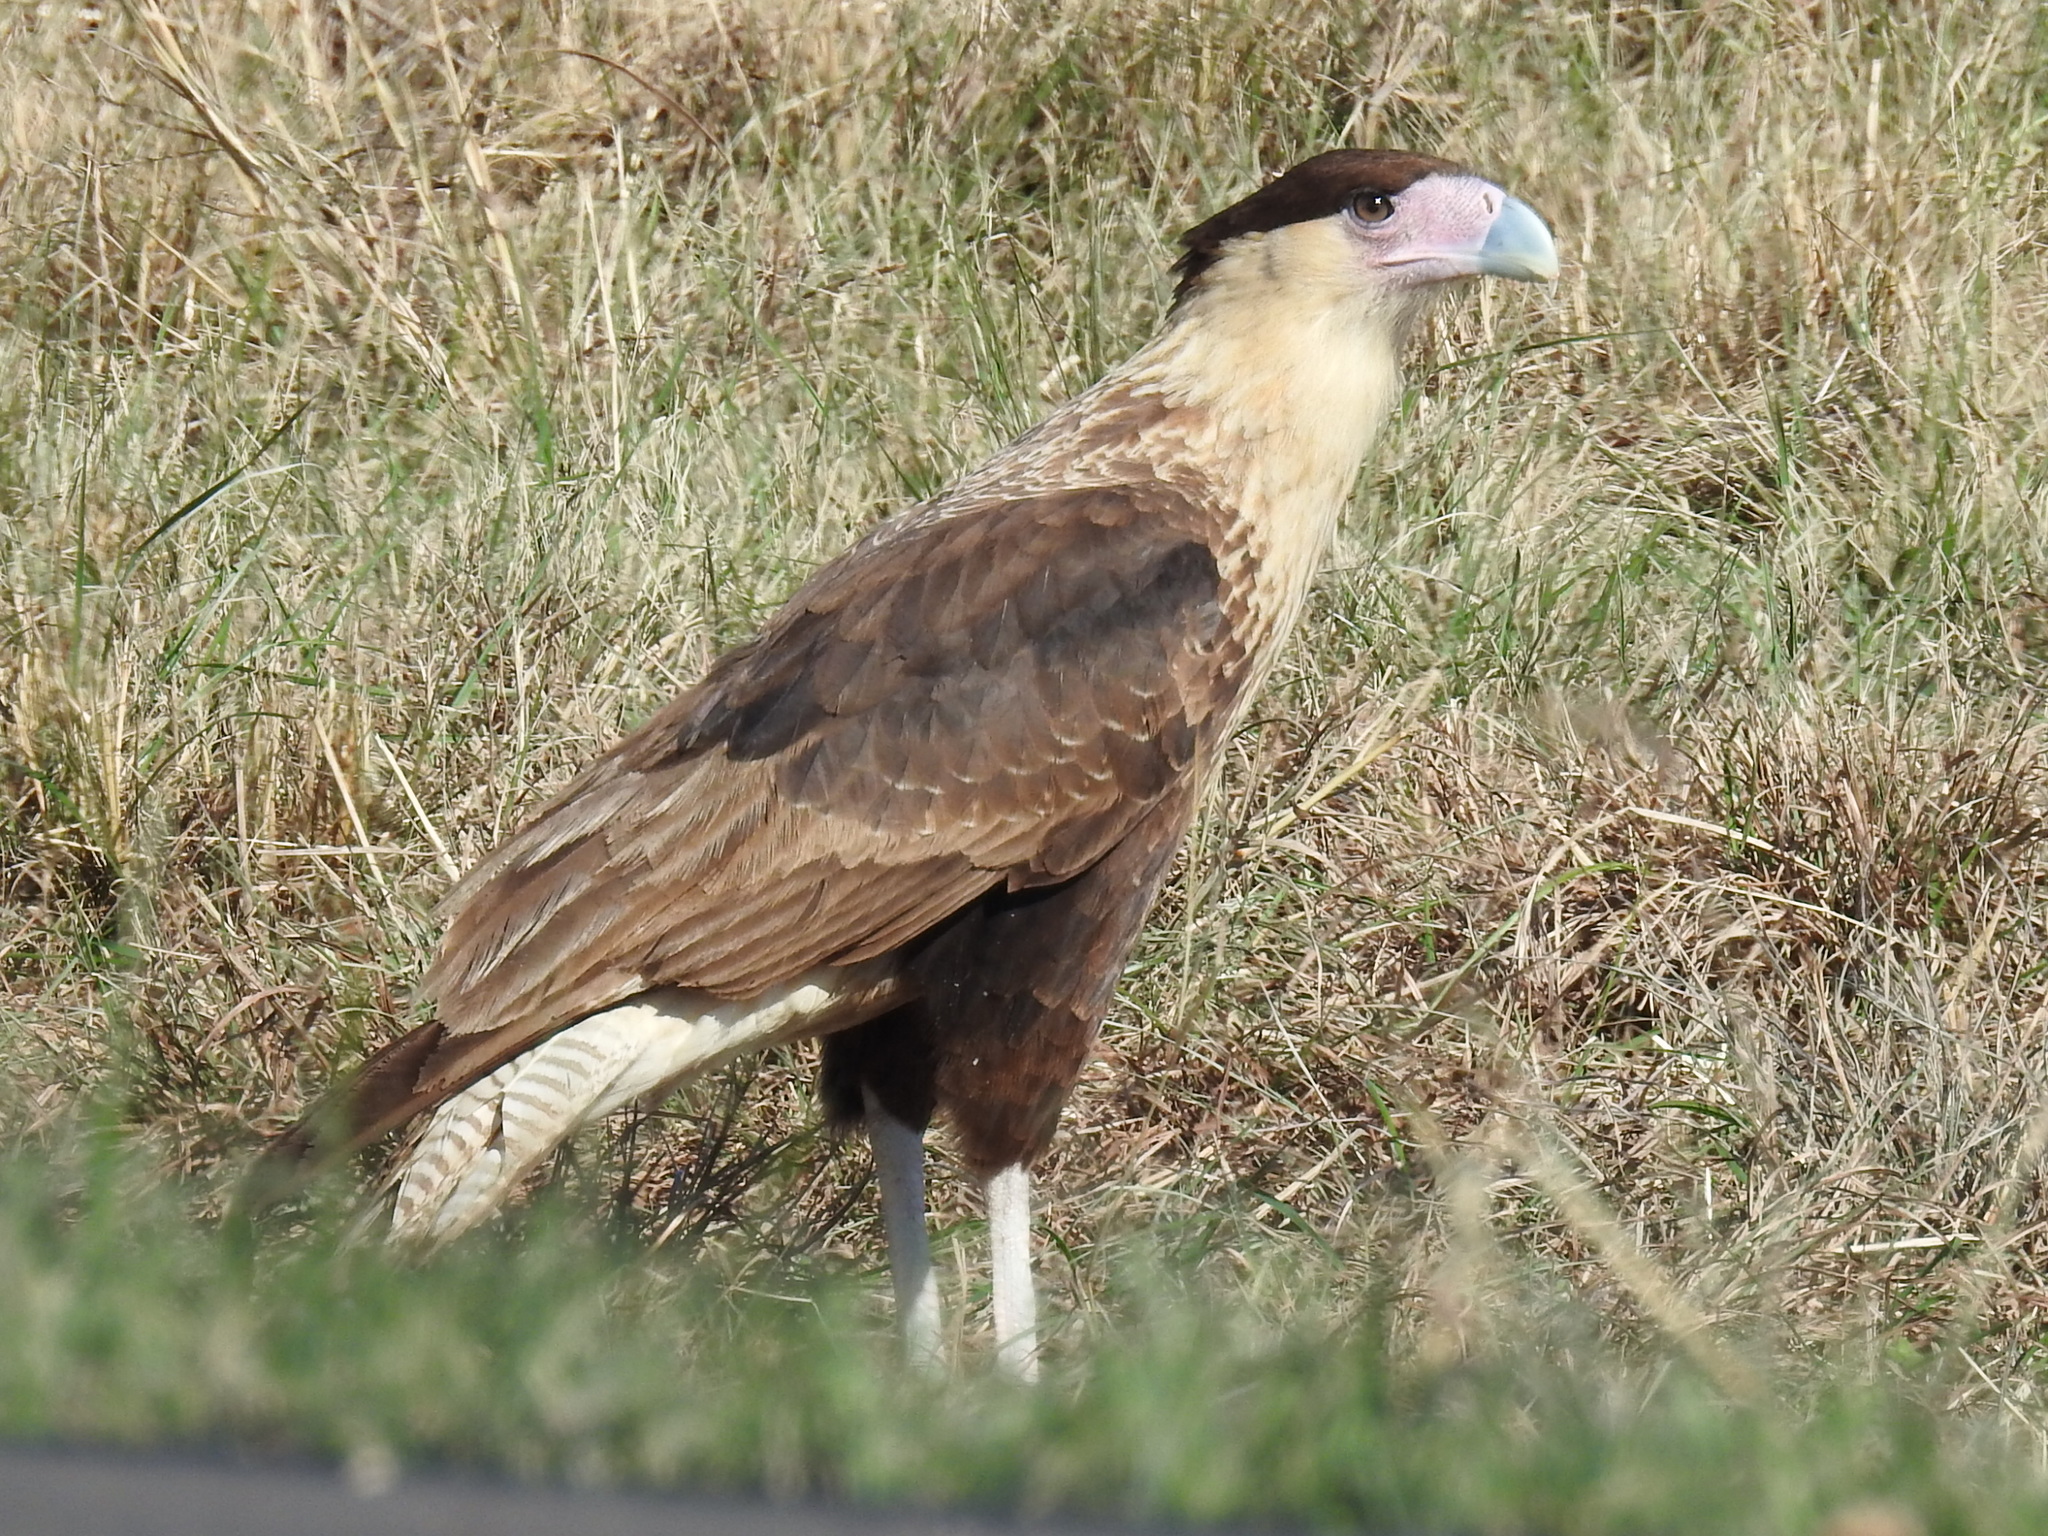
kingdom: Animalia
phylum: Chordata
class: Aves
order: Falconiformes
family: Falconidae
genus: Caracara
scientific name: Caracara plancus
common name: Southern caracara
